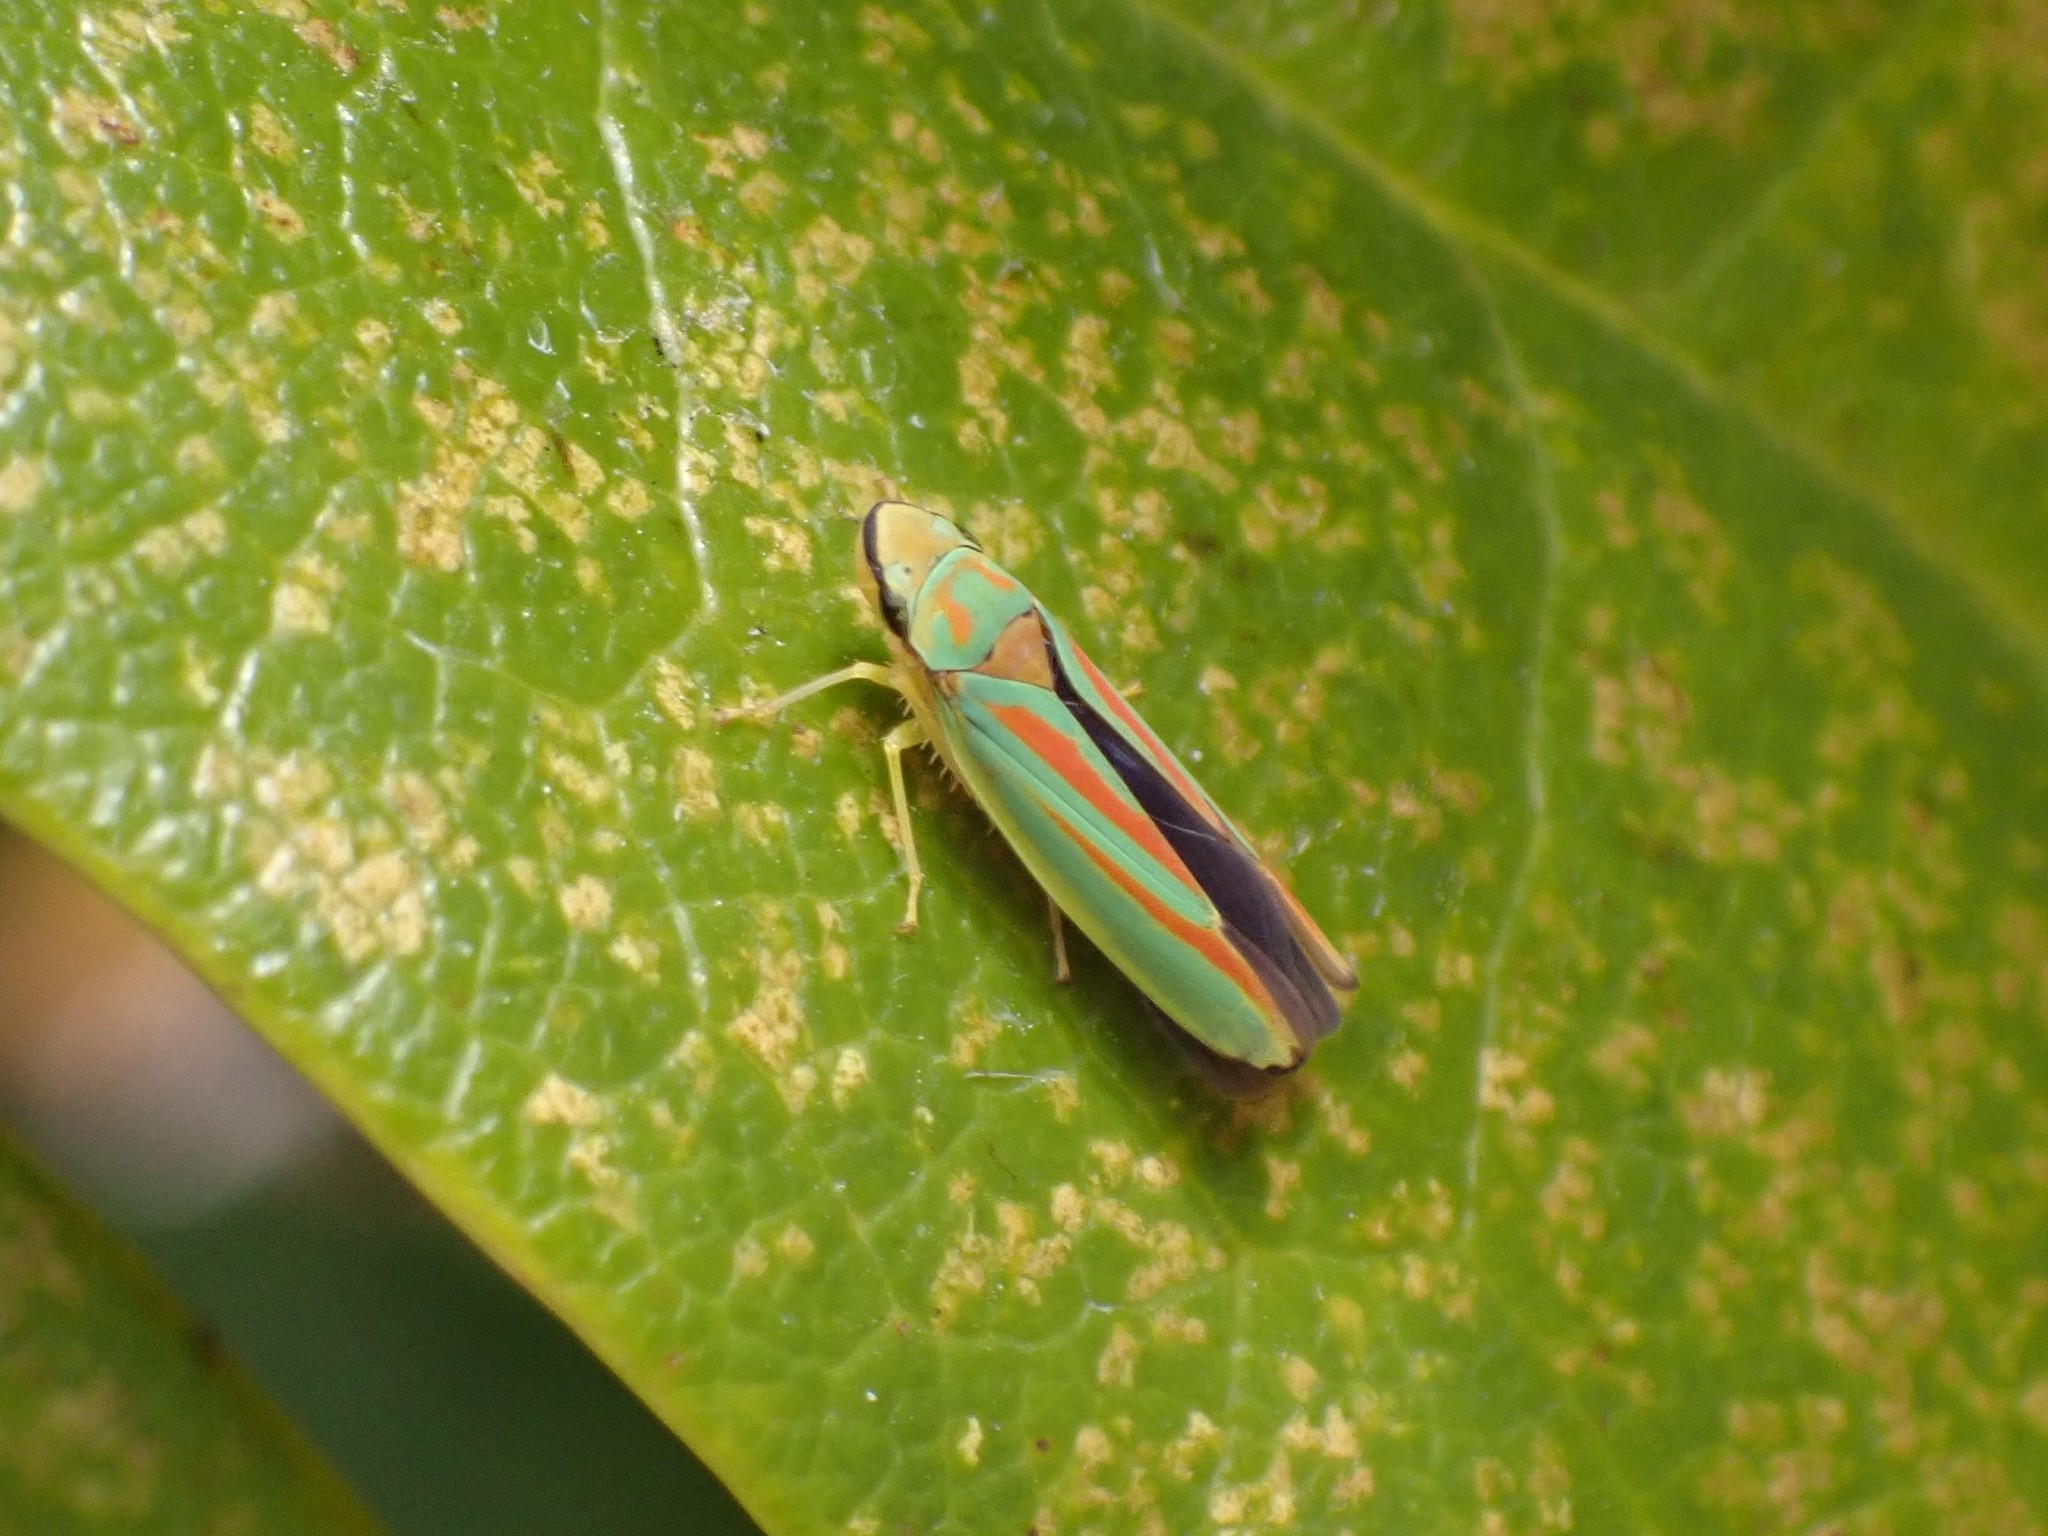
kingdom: Animalia
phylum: Arthropoda
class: Insecta
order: Hemiptera
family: Cicadellidae
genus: Graphocephala
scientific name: Graphocephala fennahi
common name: Rhododendron leafhopper
